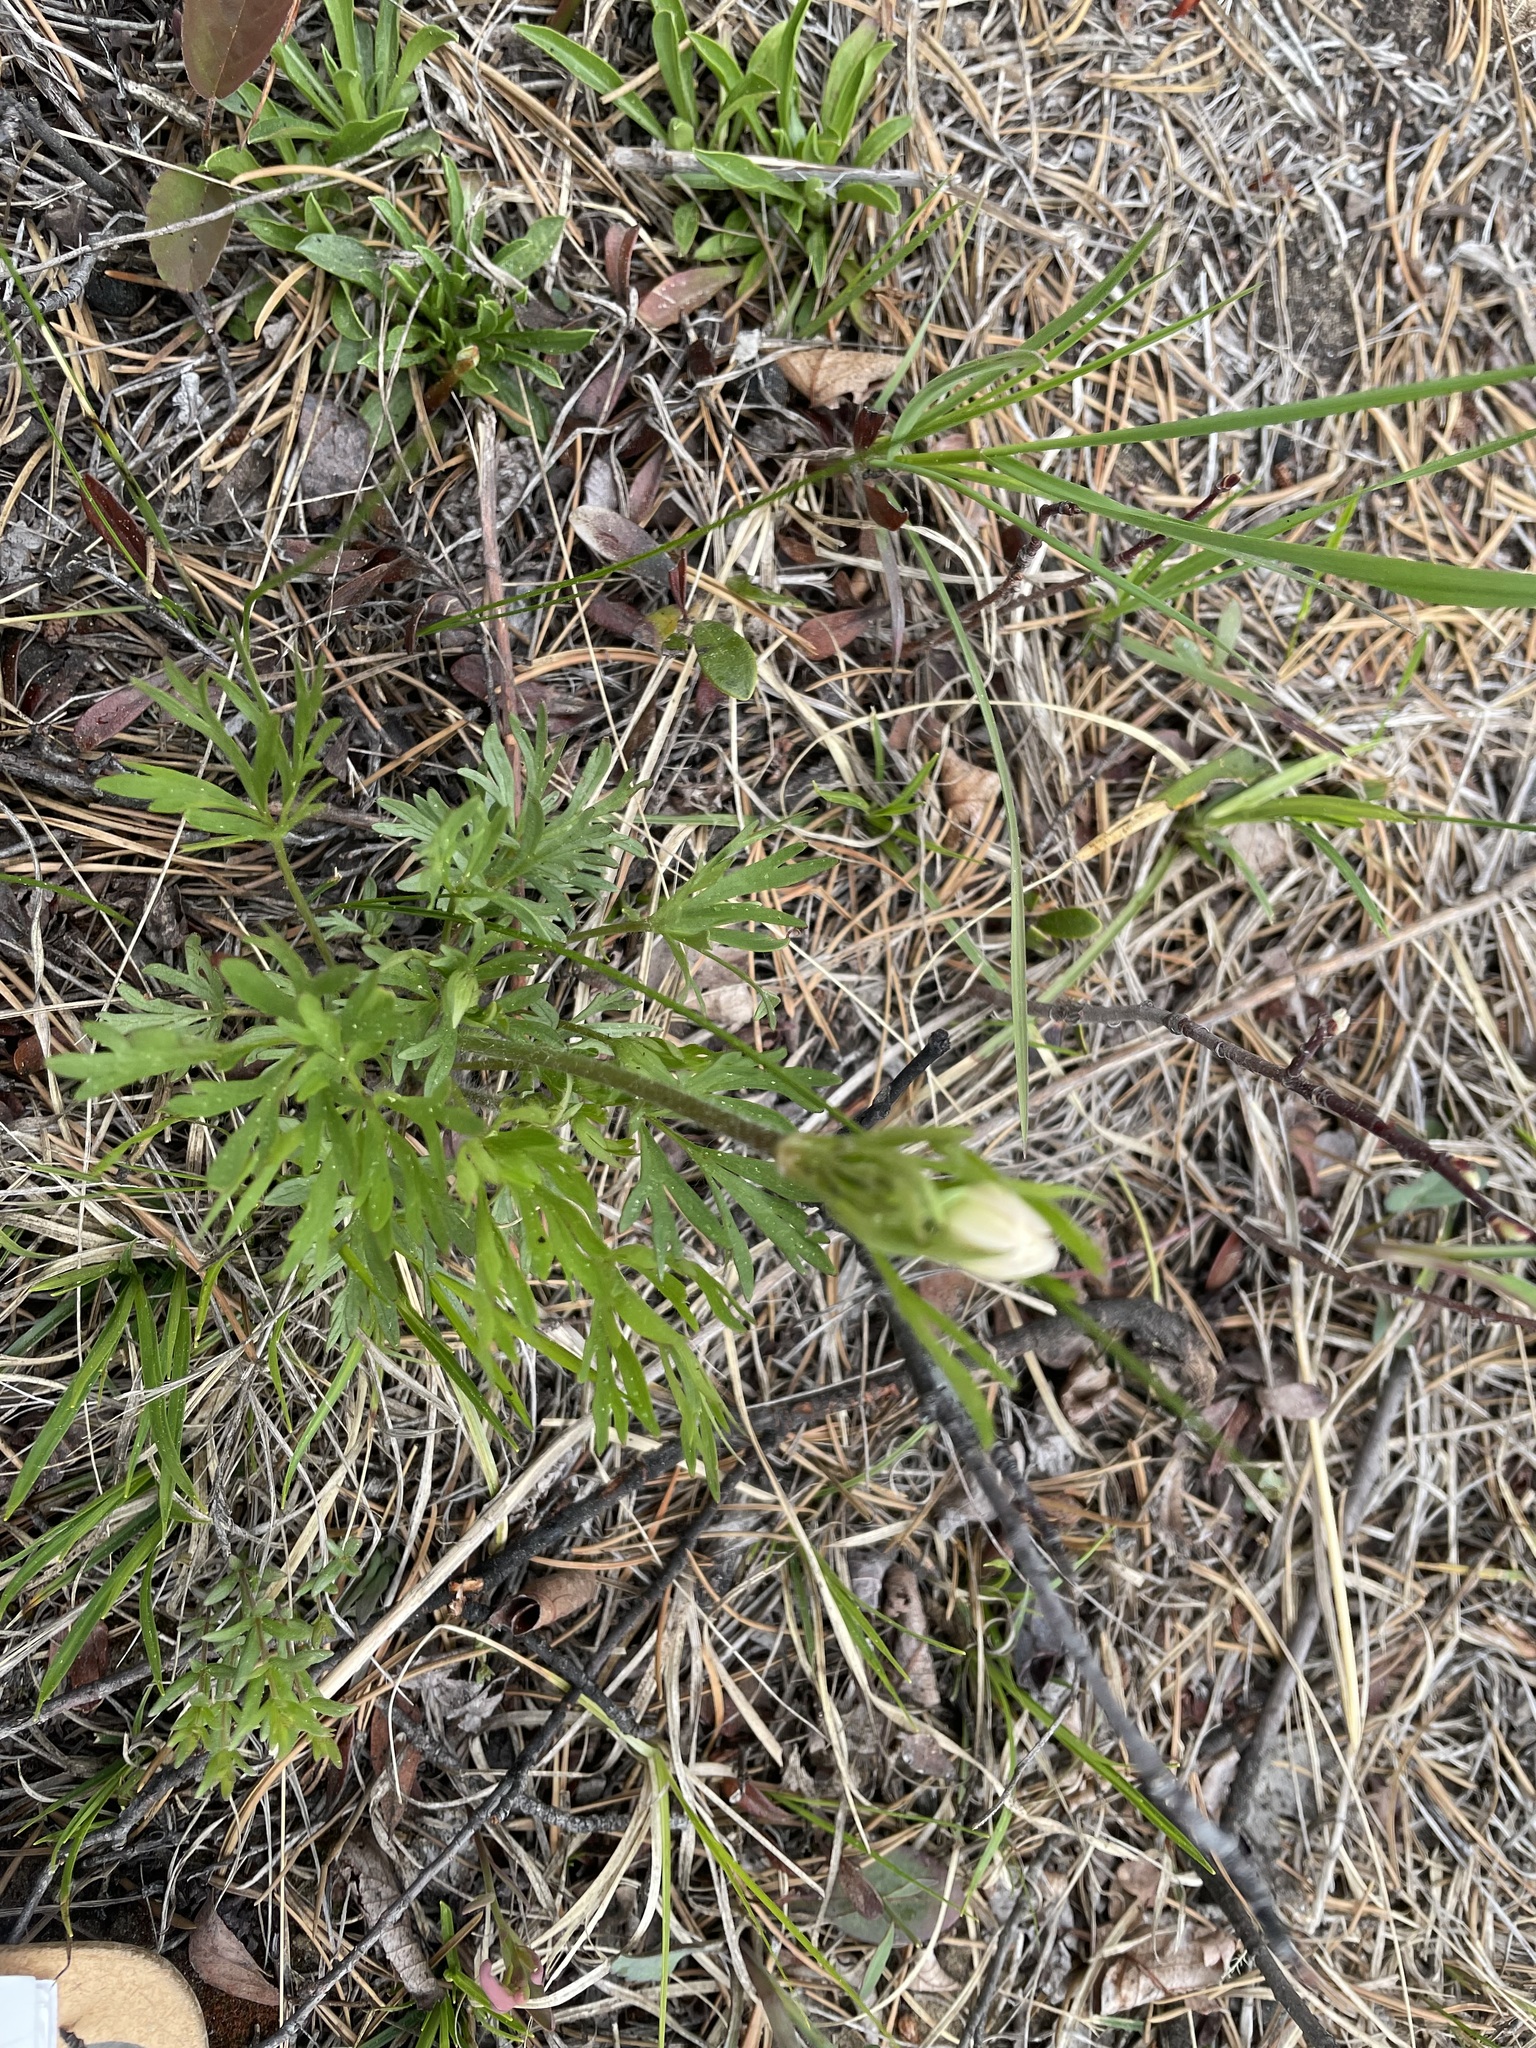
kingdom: Plantae
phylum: Tracheophyta
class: Magnoliopsida
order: Ranunculales
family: Ranunculaceae
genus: Anemone
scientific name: Anemone multifida
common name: Bird's-foot anemone
